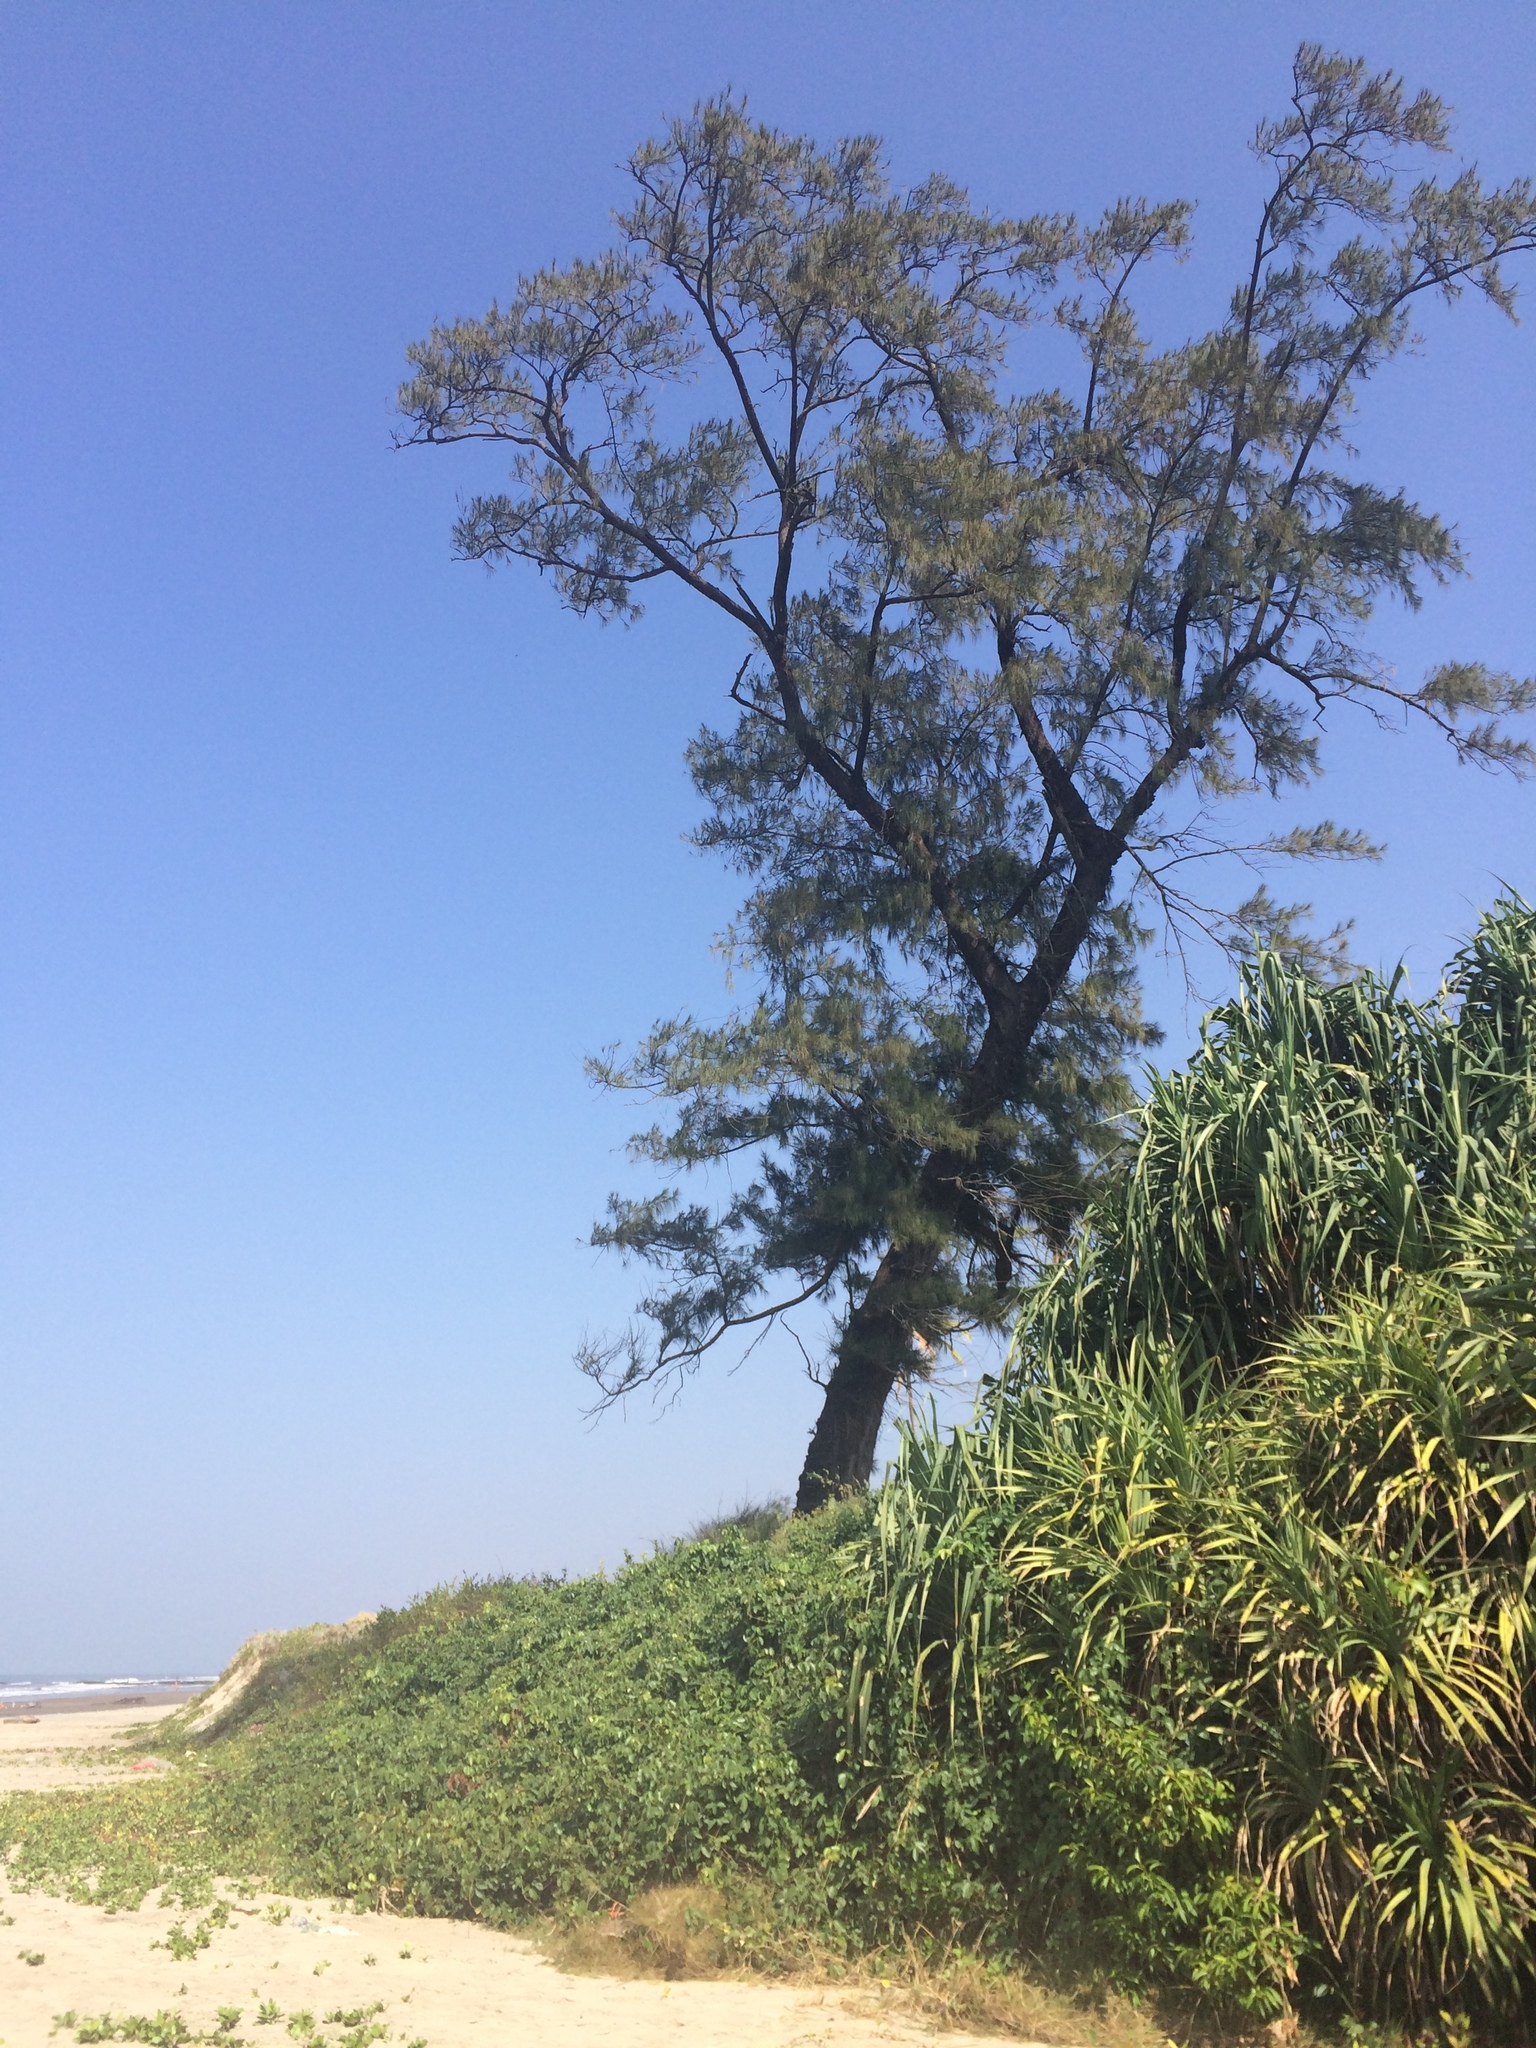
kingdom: Plantae
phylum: Tracheophyta
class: Magnoliopsida
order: Fagales
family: Casuarinaceae
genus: Casuarina
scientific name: Casuarina equisetifolia
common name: Beach sheoak
